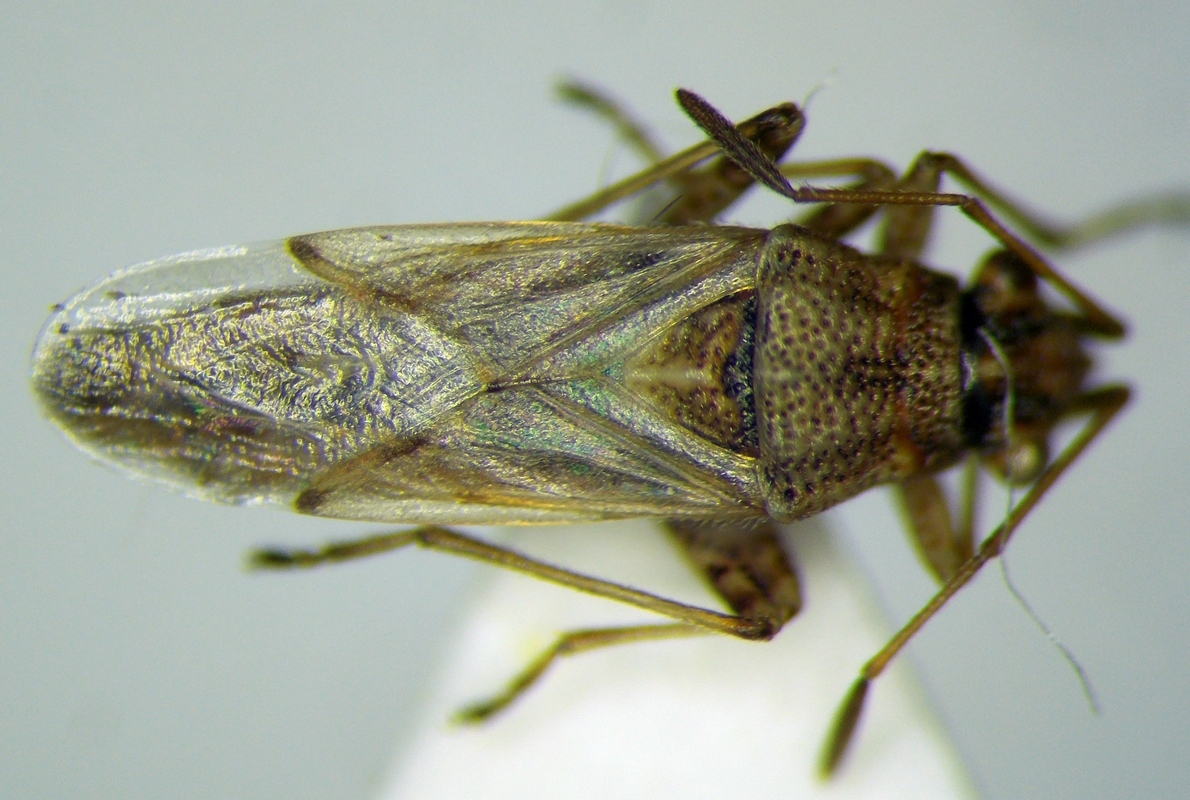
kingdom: Animalia
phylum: Arthropoda
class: Insecta
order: Hemiptera
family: Lygaeidae
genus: Nysius
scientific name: Nysius helveticus
